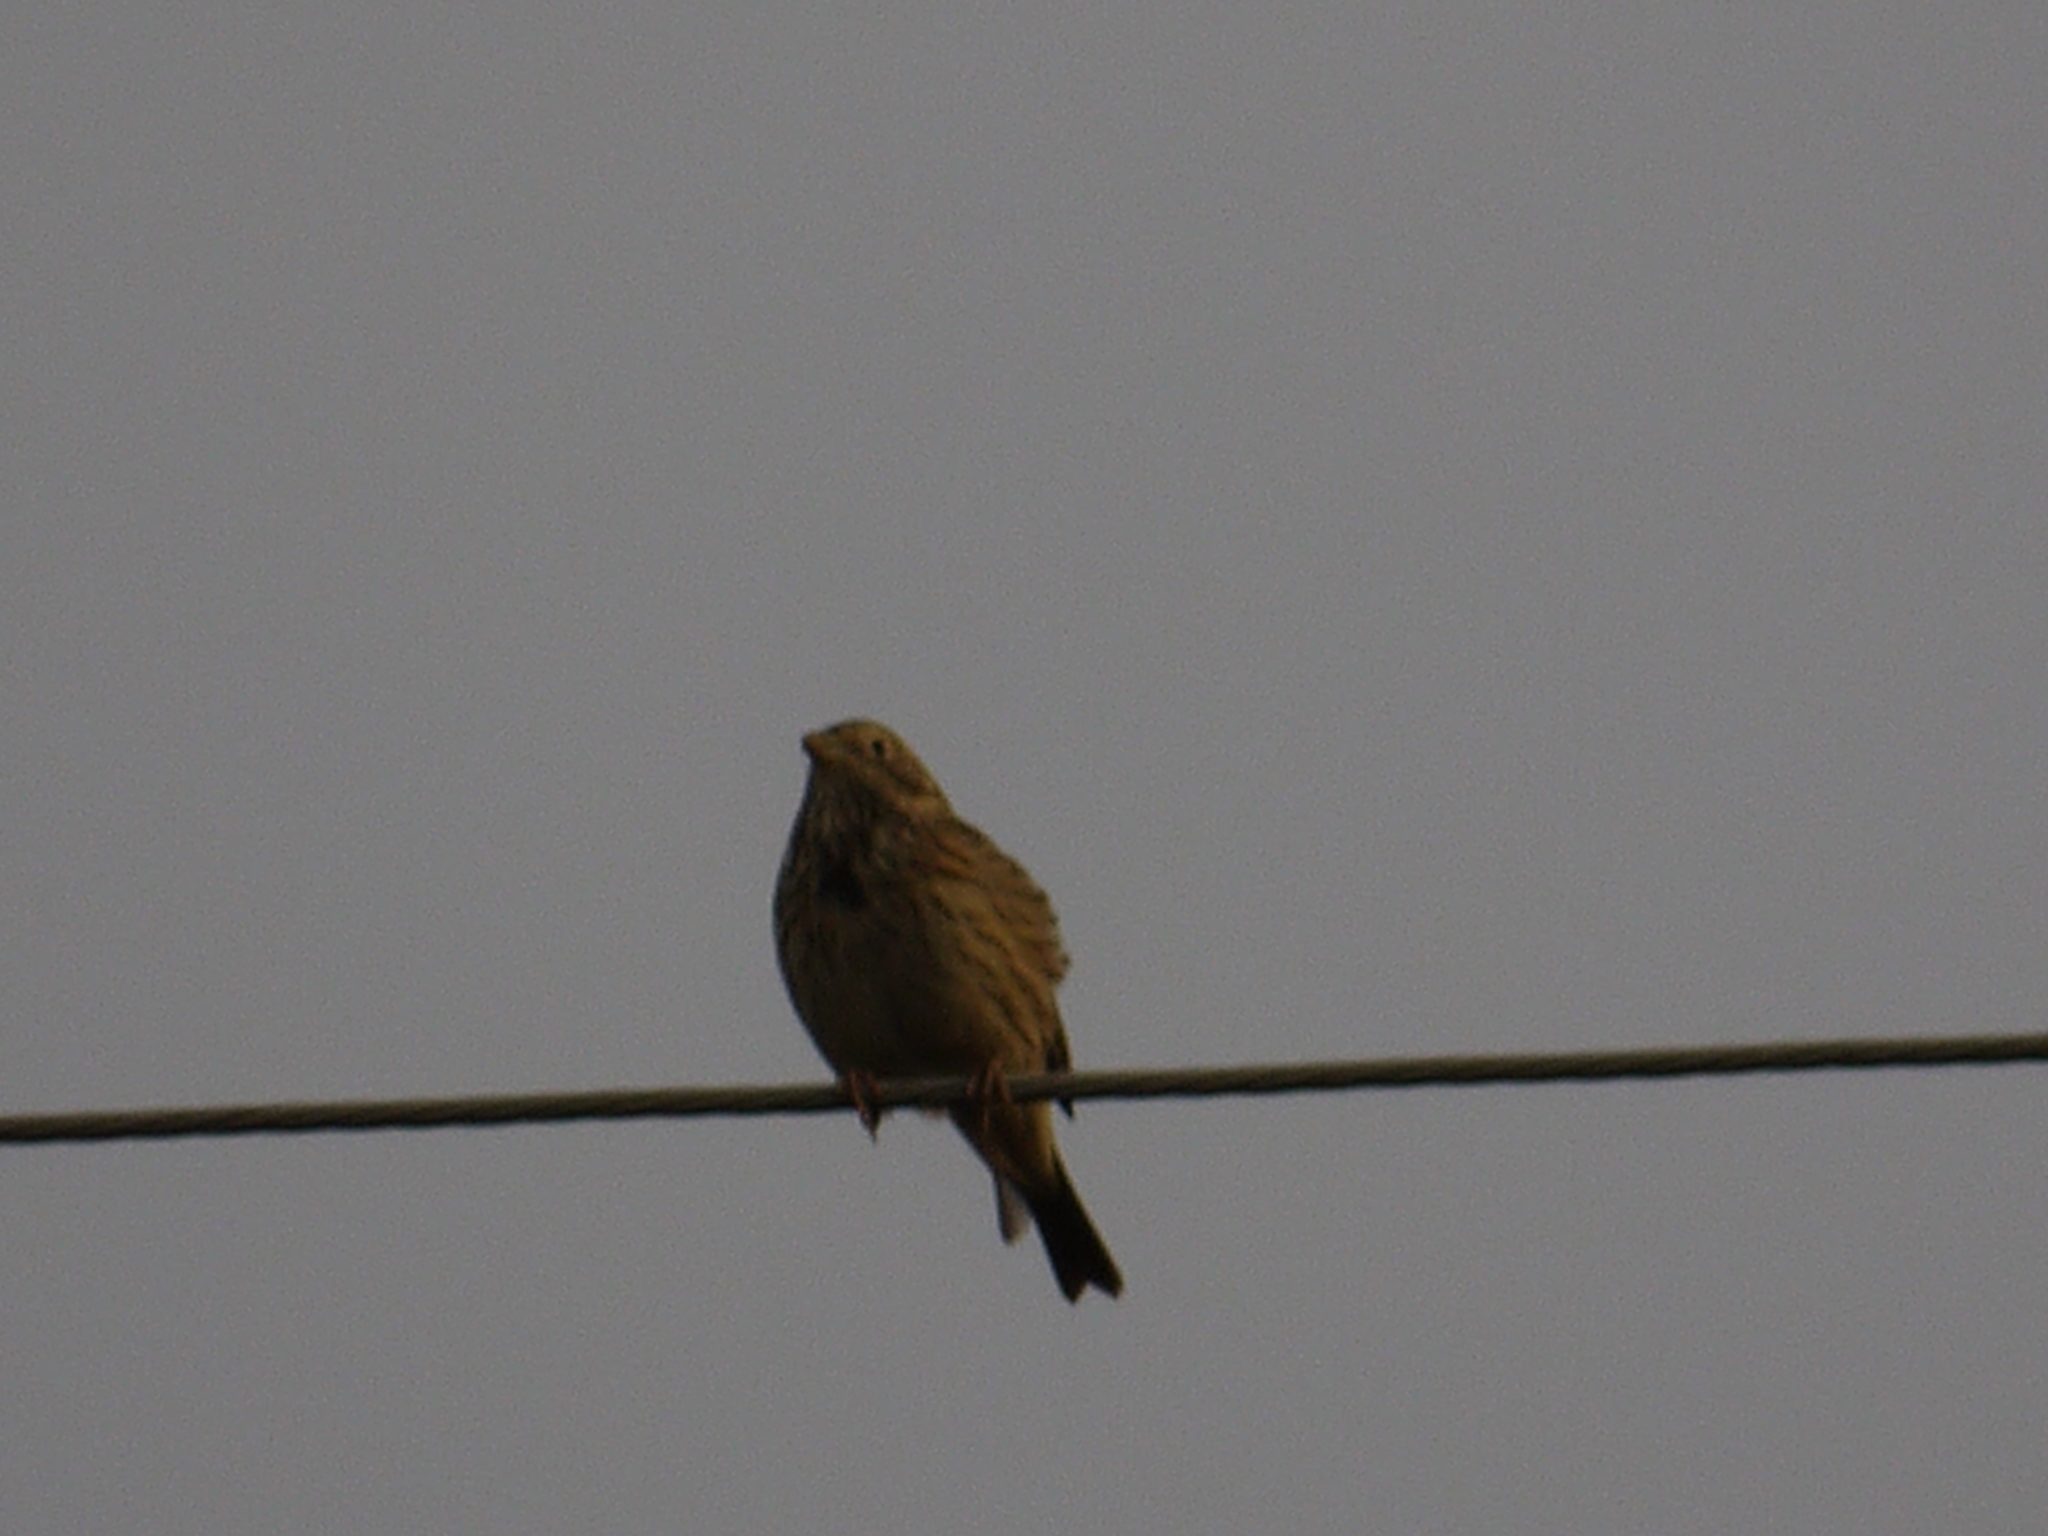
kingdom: Animalia
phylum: Chordata
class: Aves
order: Passeriformes
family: Emberizidae
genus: Emberiza
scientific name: Emberiza calandra
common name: Corn bunting
